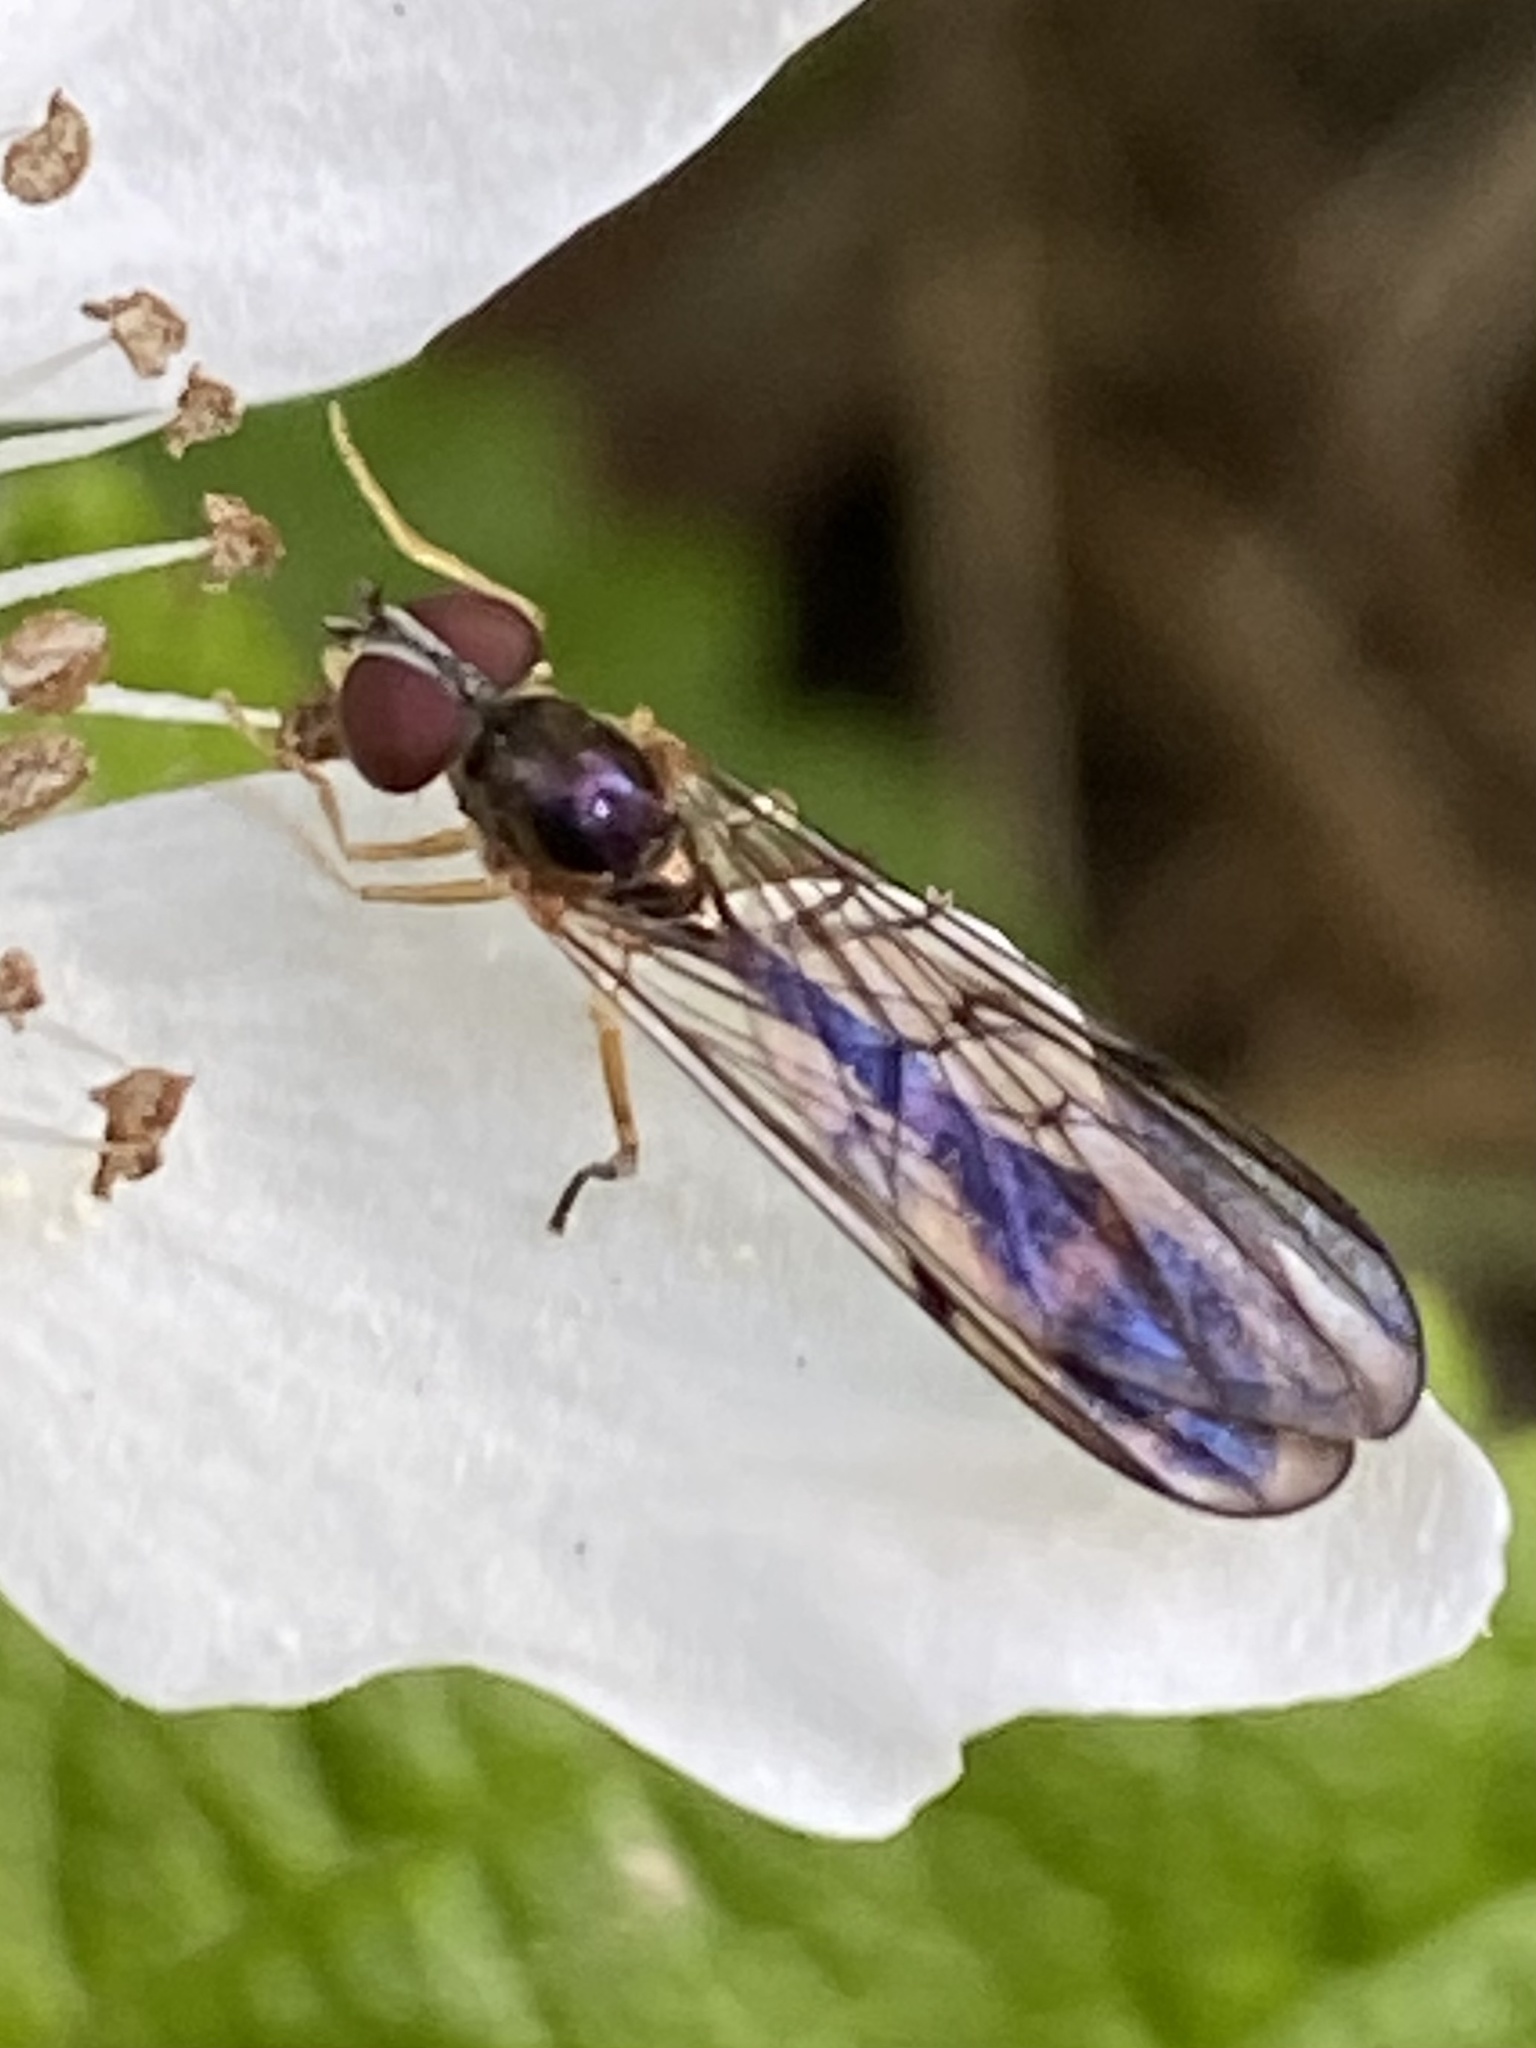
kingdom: Animalia
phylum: Arthropoda
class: Insecta
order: Diptera
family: Syrphidae
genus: Baccha
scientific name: Baccha cognata
